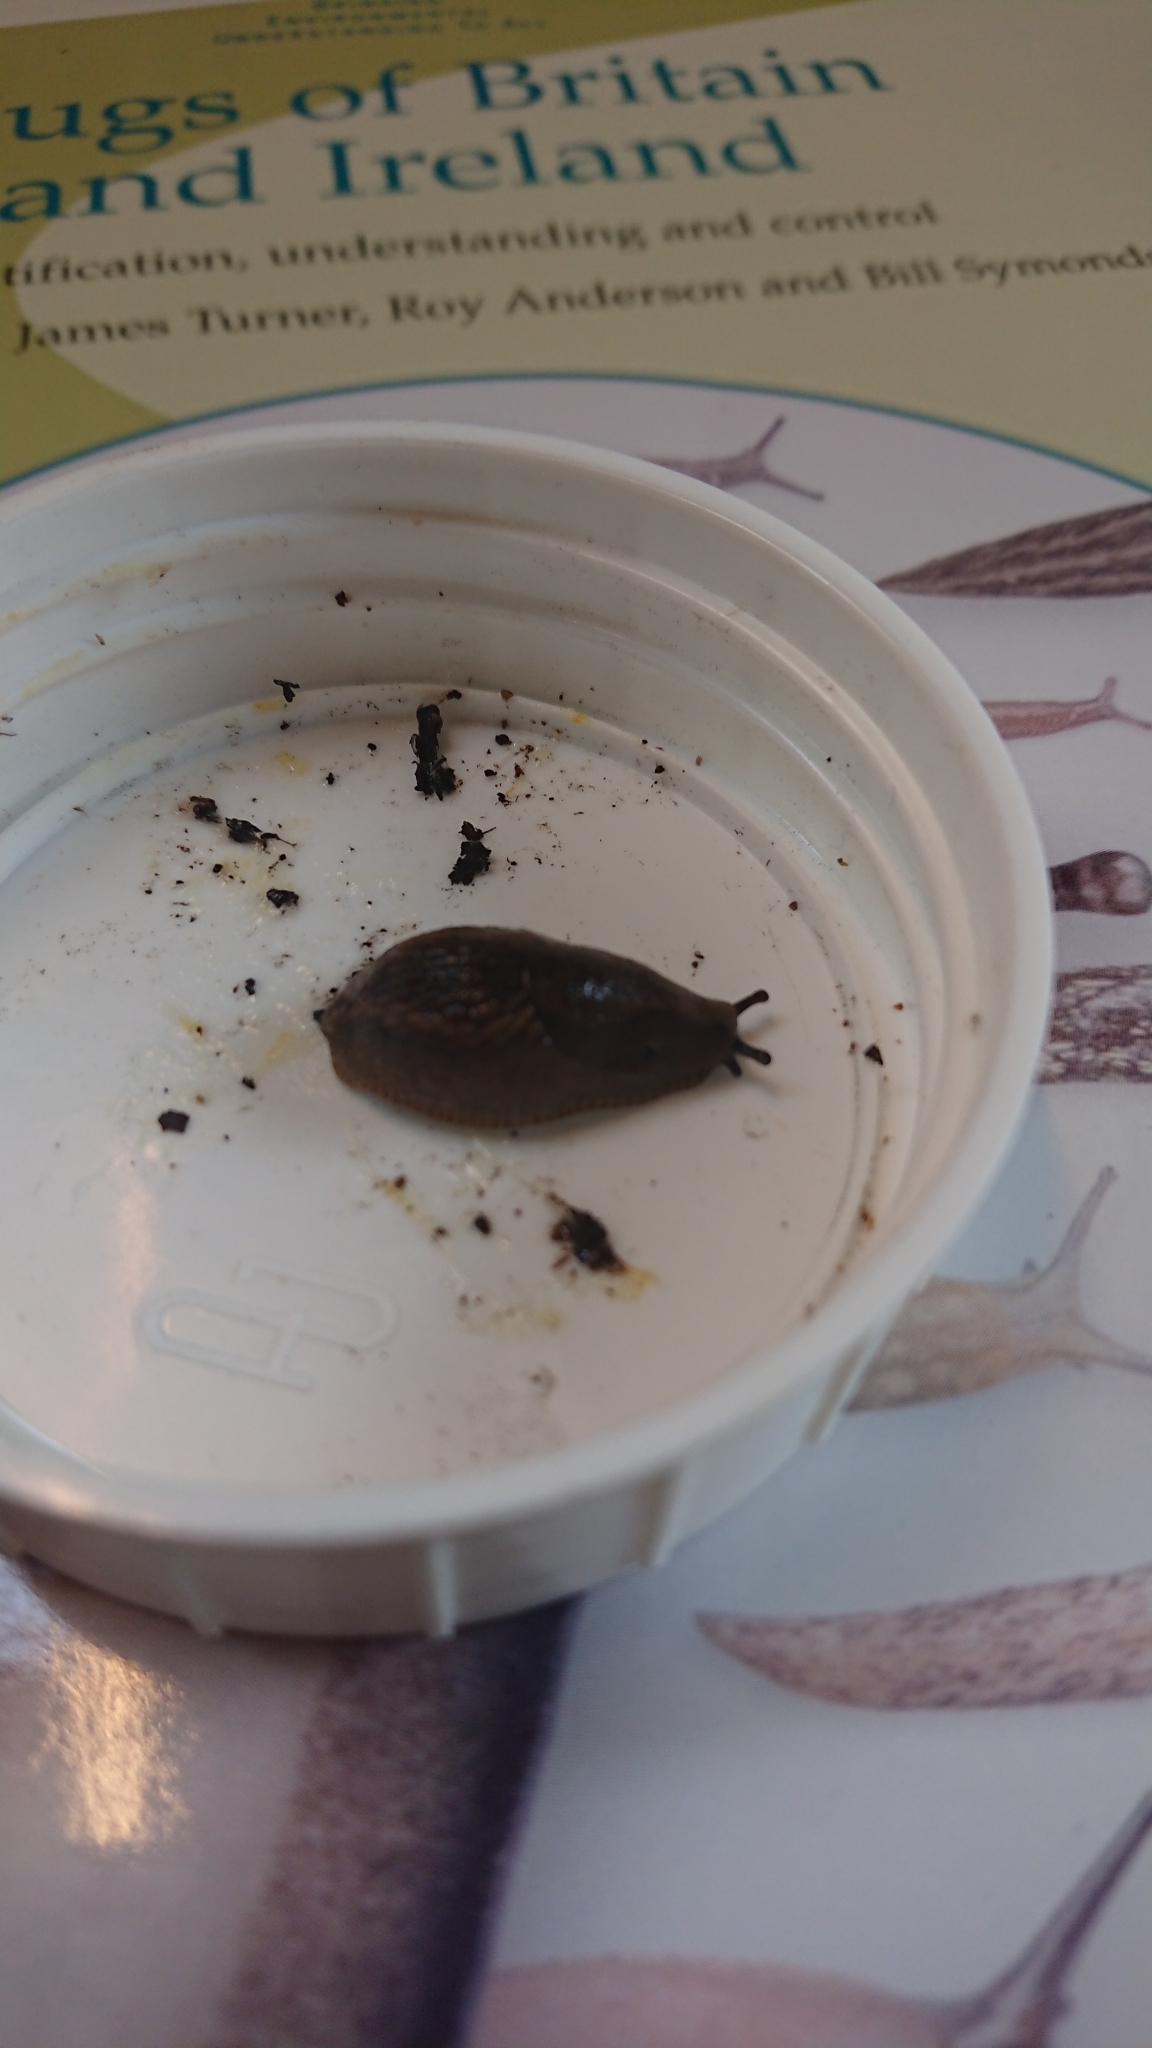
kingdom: Animalia
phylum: Mollusca
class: Gastropoda
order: Stylommatophora
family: Arionidae
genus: Arion
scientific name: Arion flagellus
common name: Durham slug
